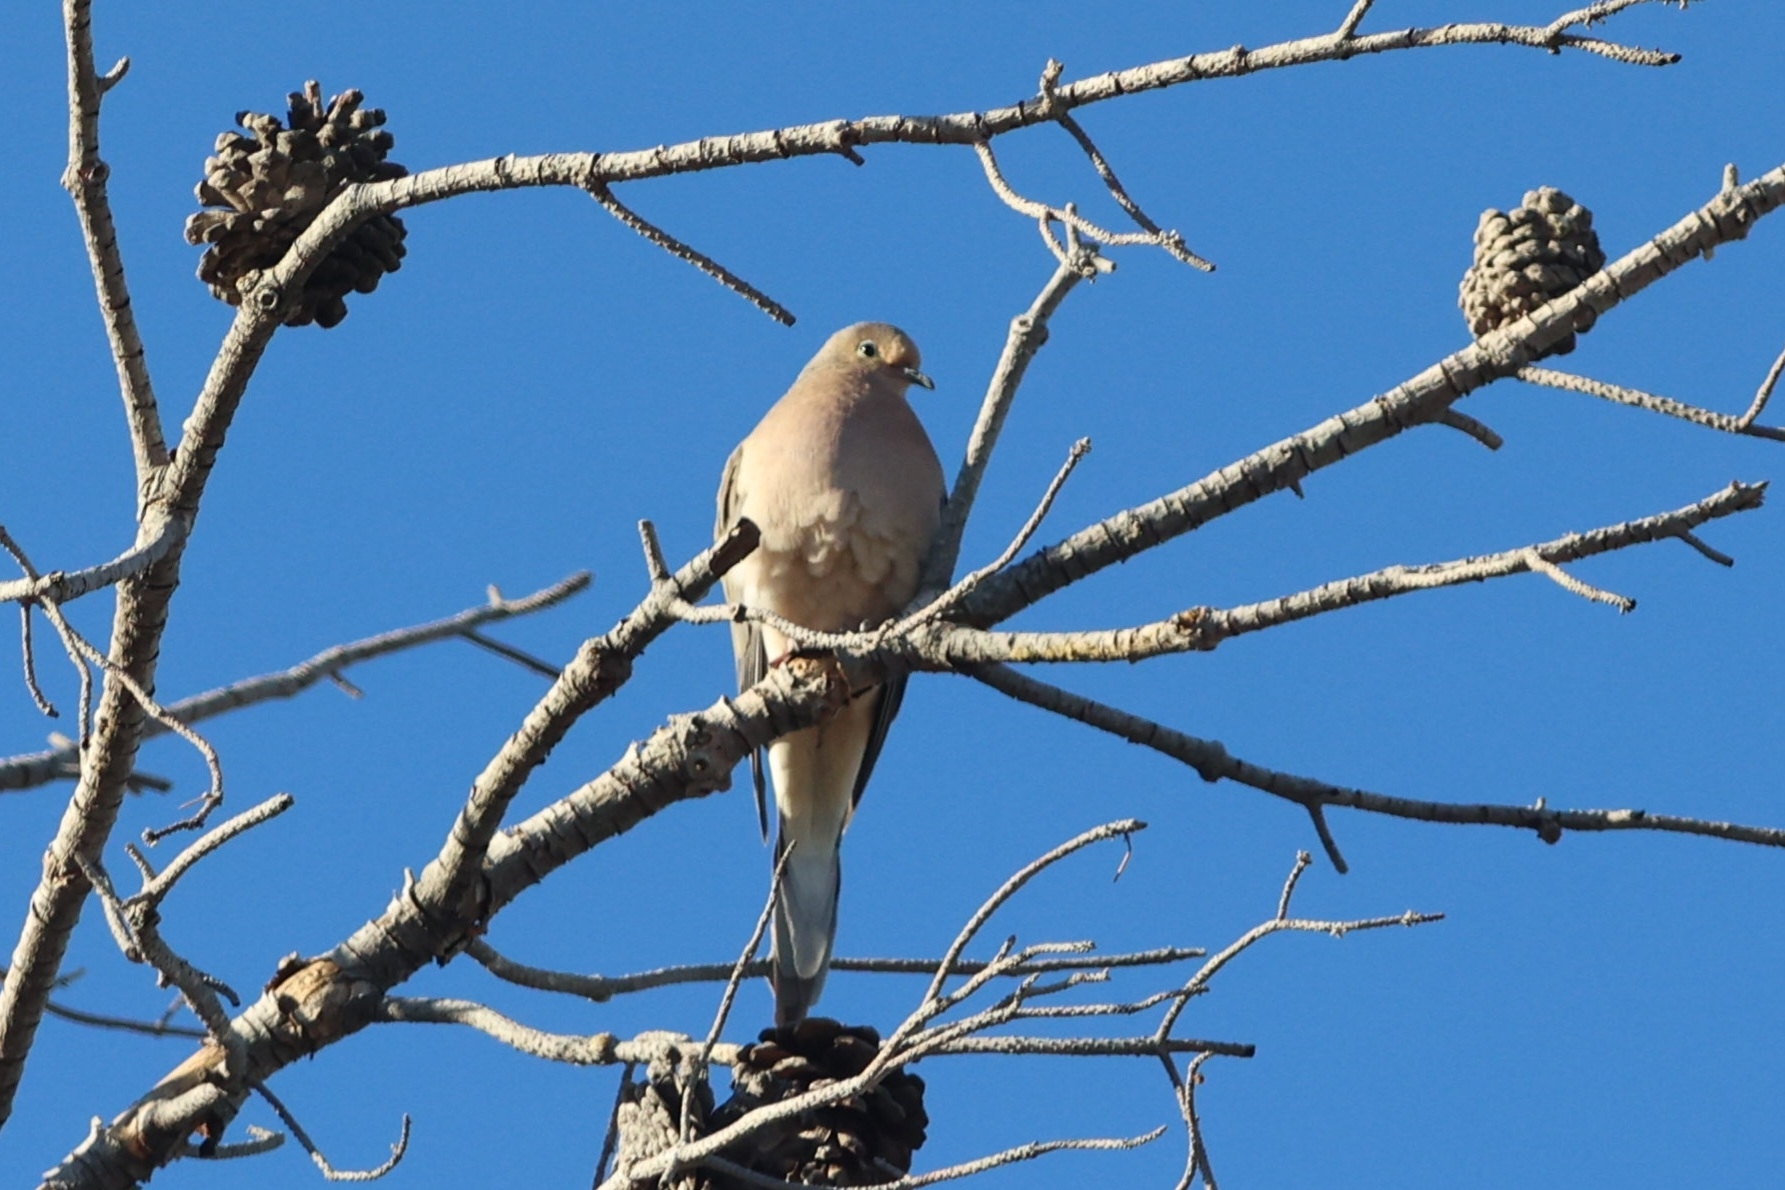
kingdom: Animalia
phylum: Chordata
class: Aves
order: Columbiformes
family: Columbidae
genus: Zenaida
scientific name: Zenaida macroura
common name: Mourning dove
